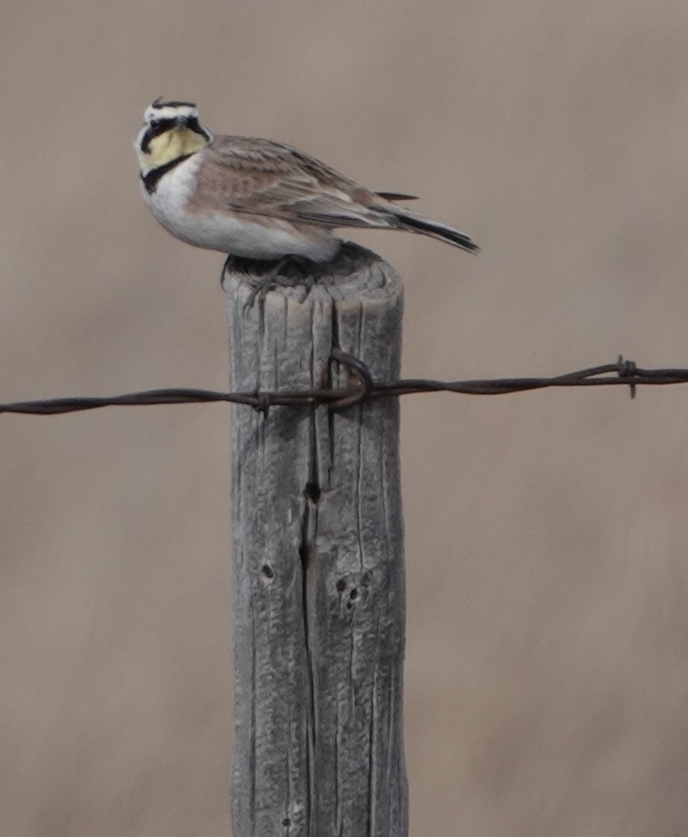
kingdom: Animalia
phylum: Chordata
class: Aves
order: Passeriformes
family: Alaudidae
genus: Eremophila
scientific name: Eremophila alpestris
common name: Horned lark
